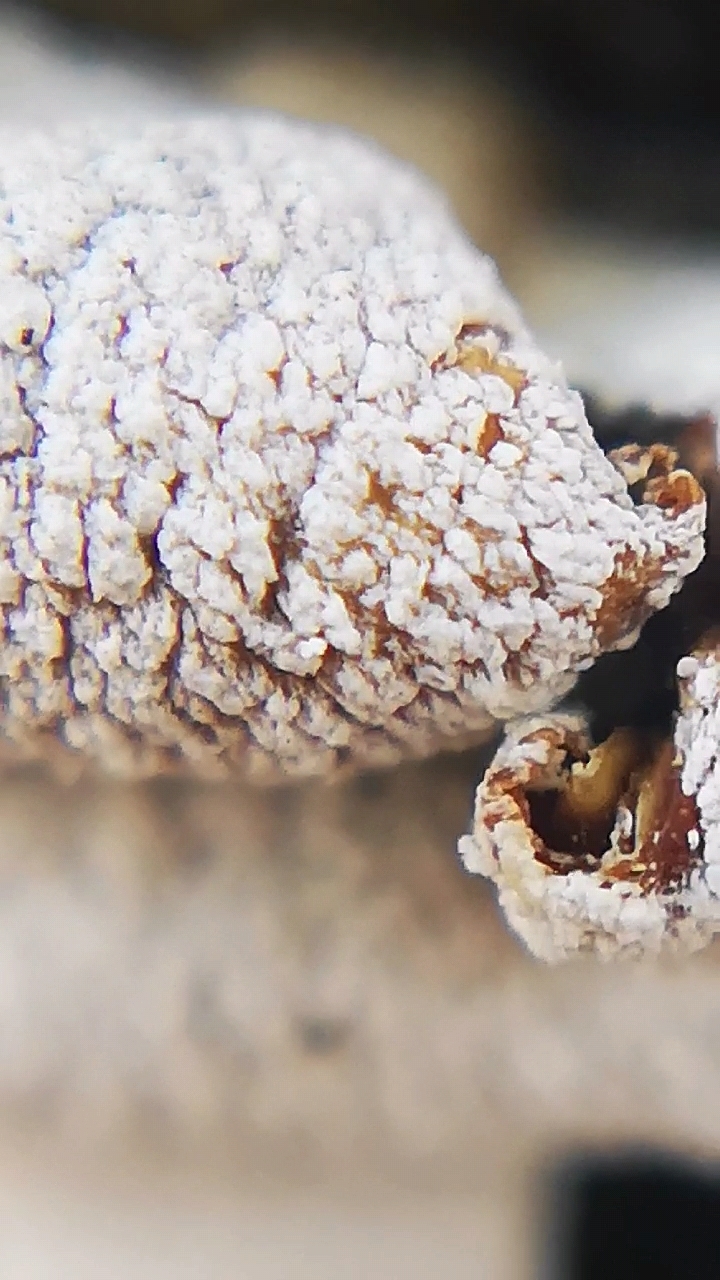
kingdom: Fungi
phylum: Basidiomycota
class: Agaricomycetes
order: Agaricales
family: Mycenaceae
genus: Panellus
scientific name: Panellus stipticus
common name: Bitter oysterling
